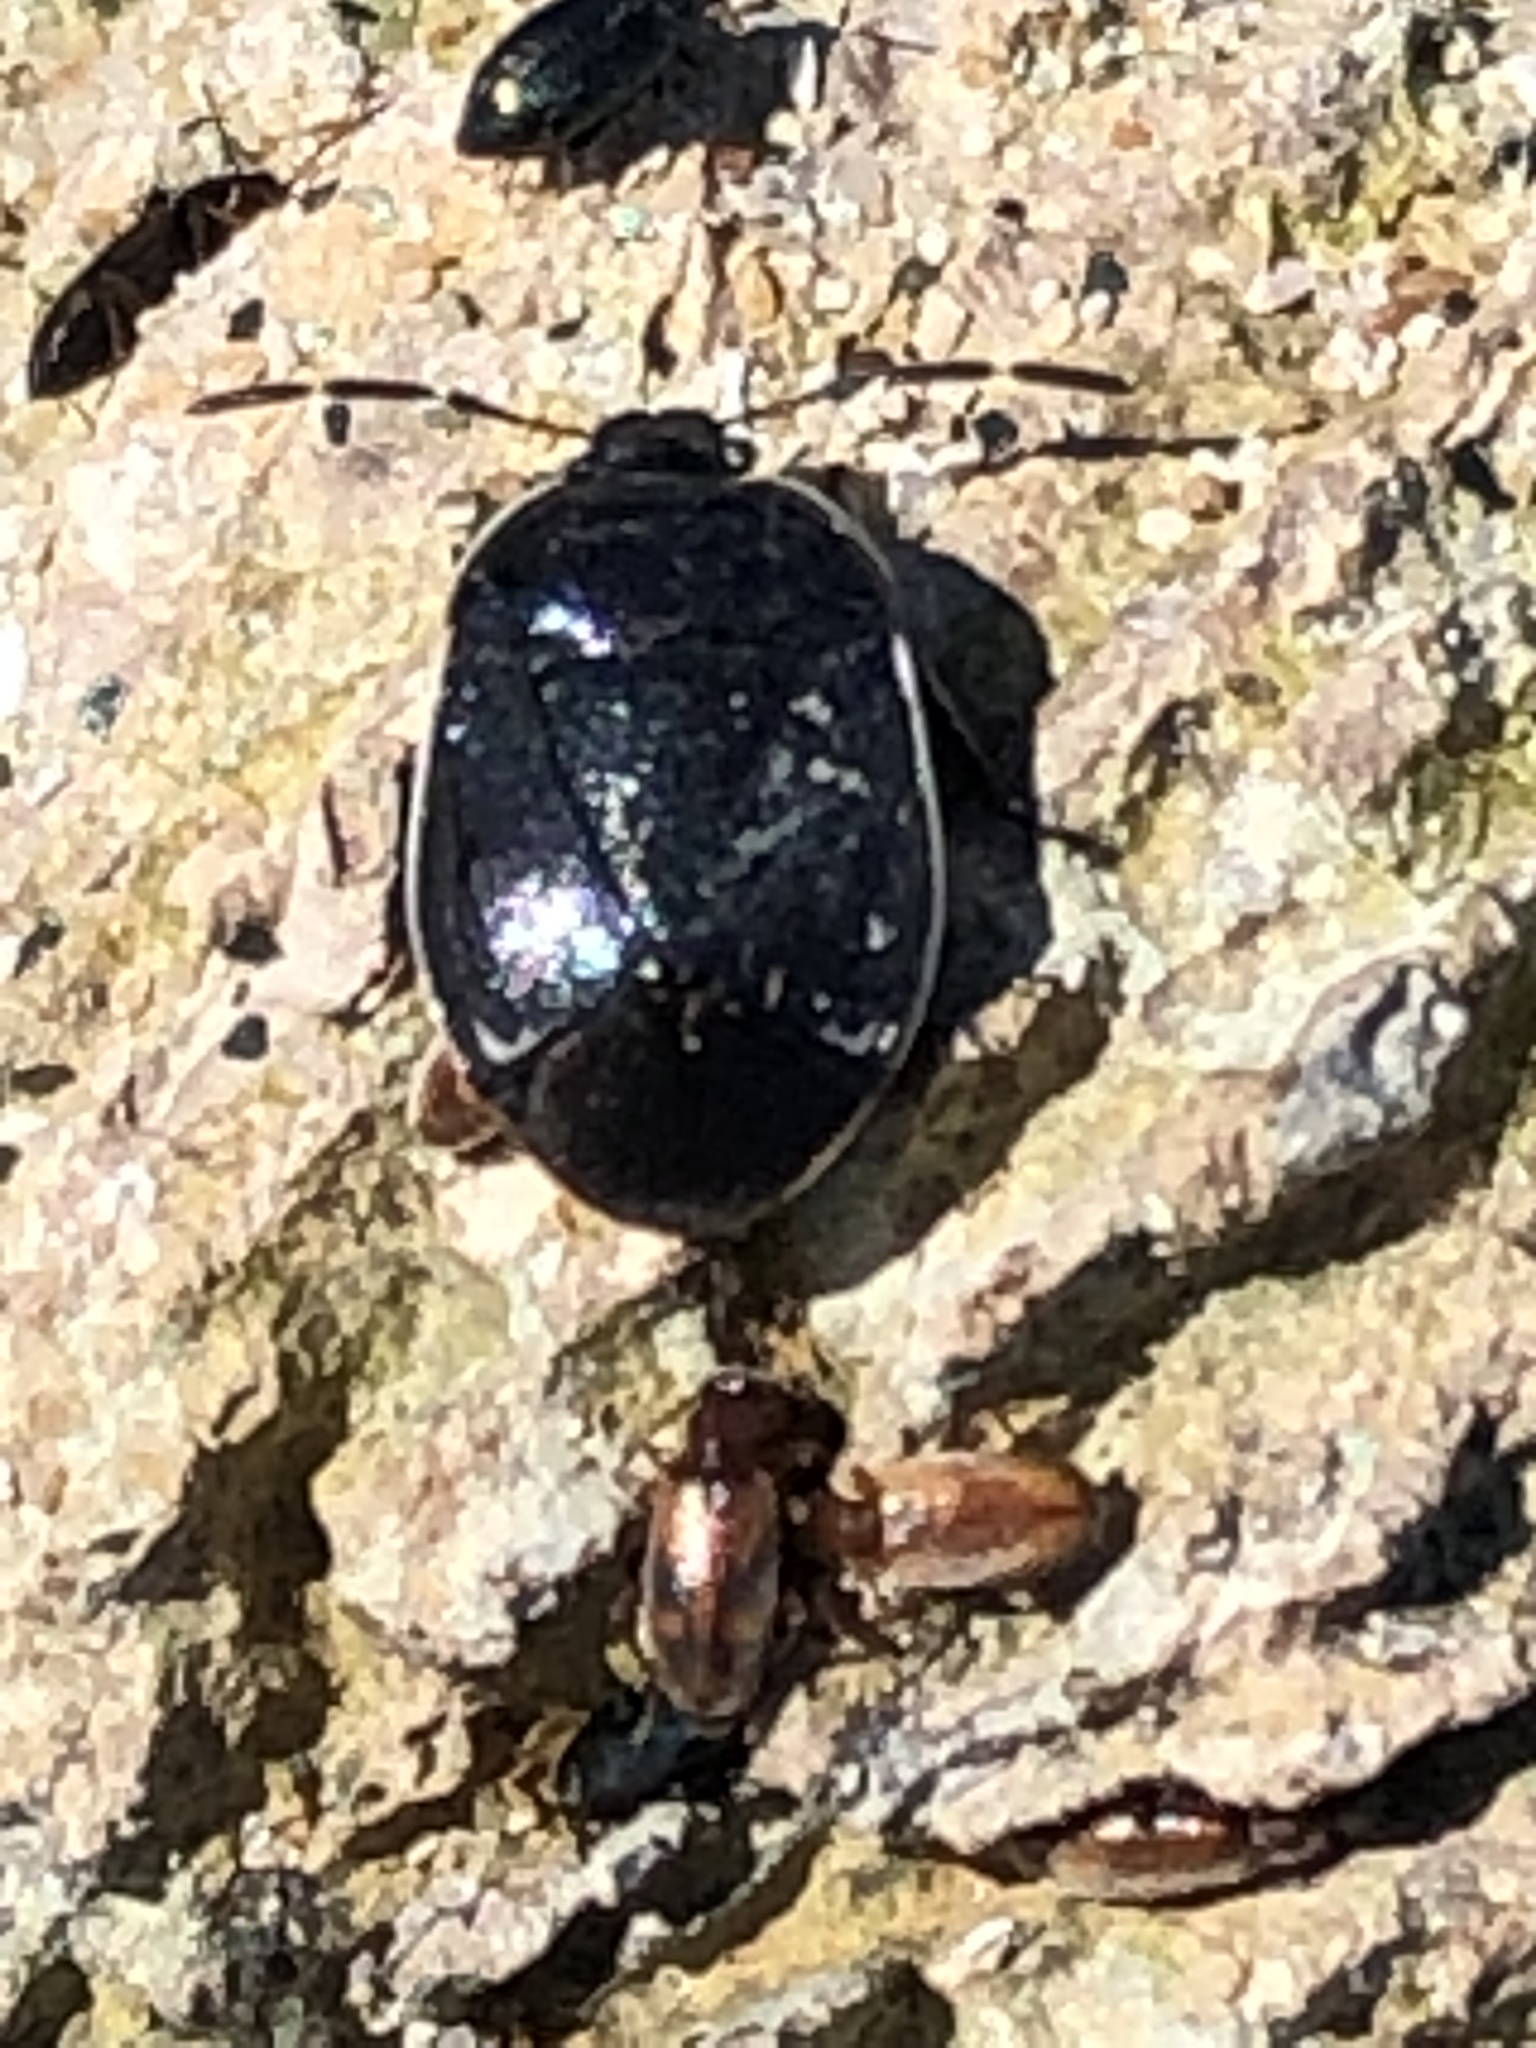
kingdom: Animalia
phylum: Arthropoda
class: Insecta
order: Hemiptera
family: Cydnidae
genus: Sehirus
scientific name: Sehirus cinctus
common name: White-margined burrower bug
